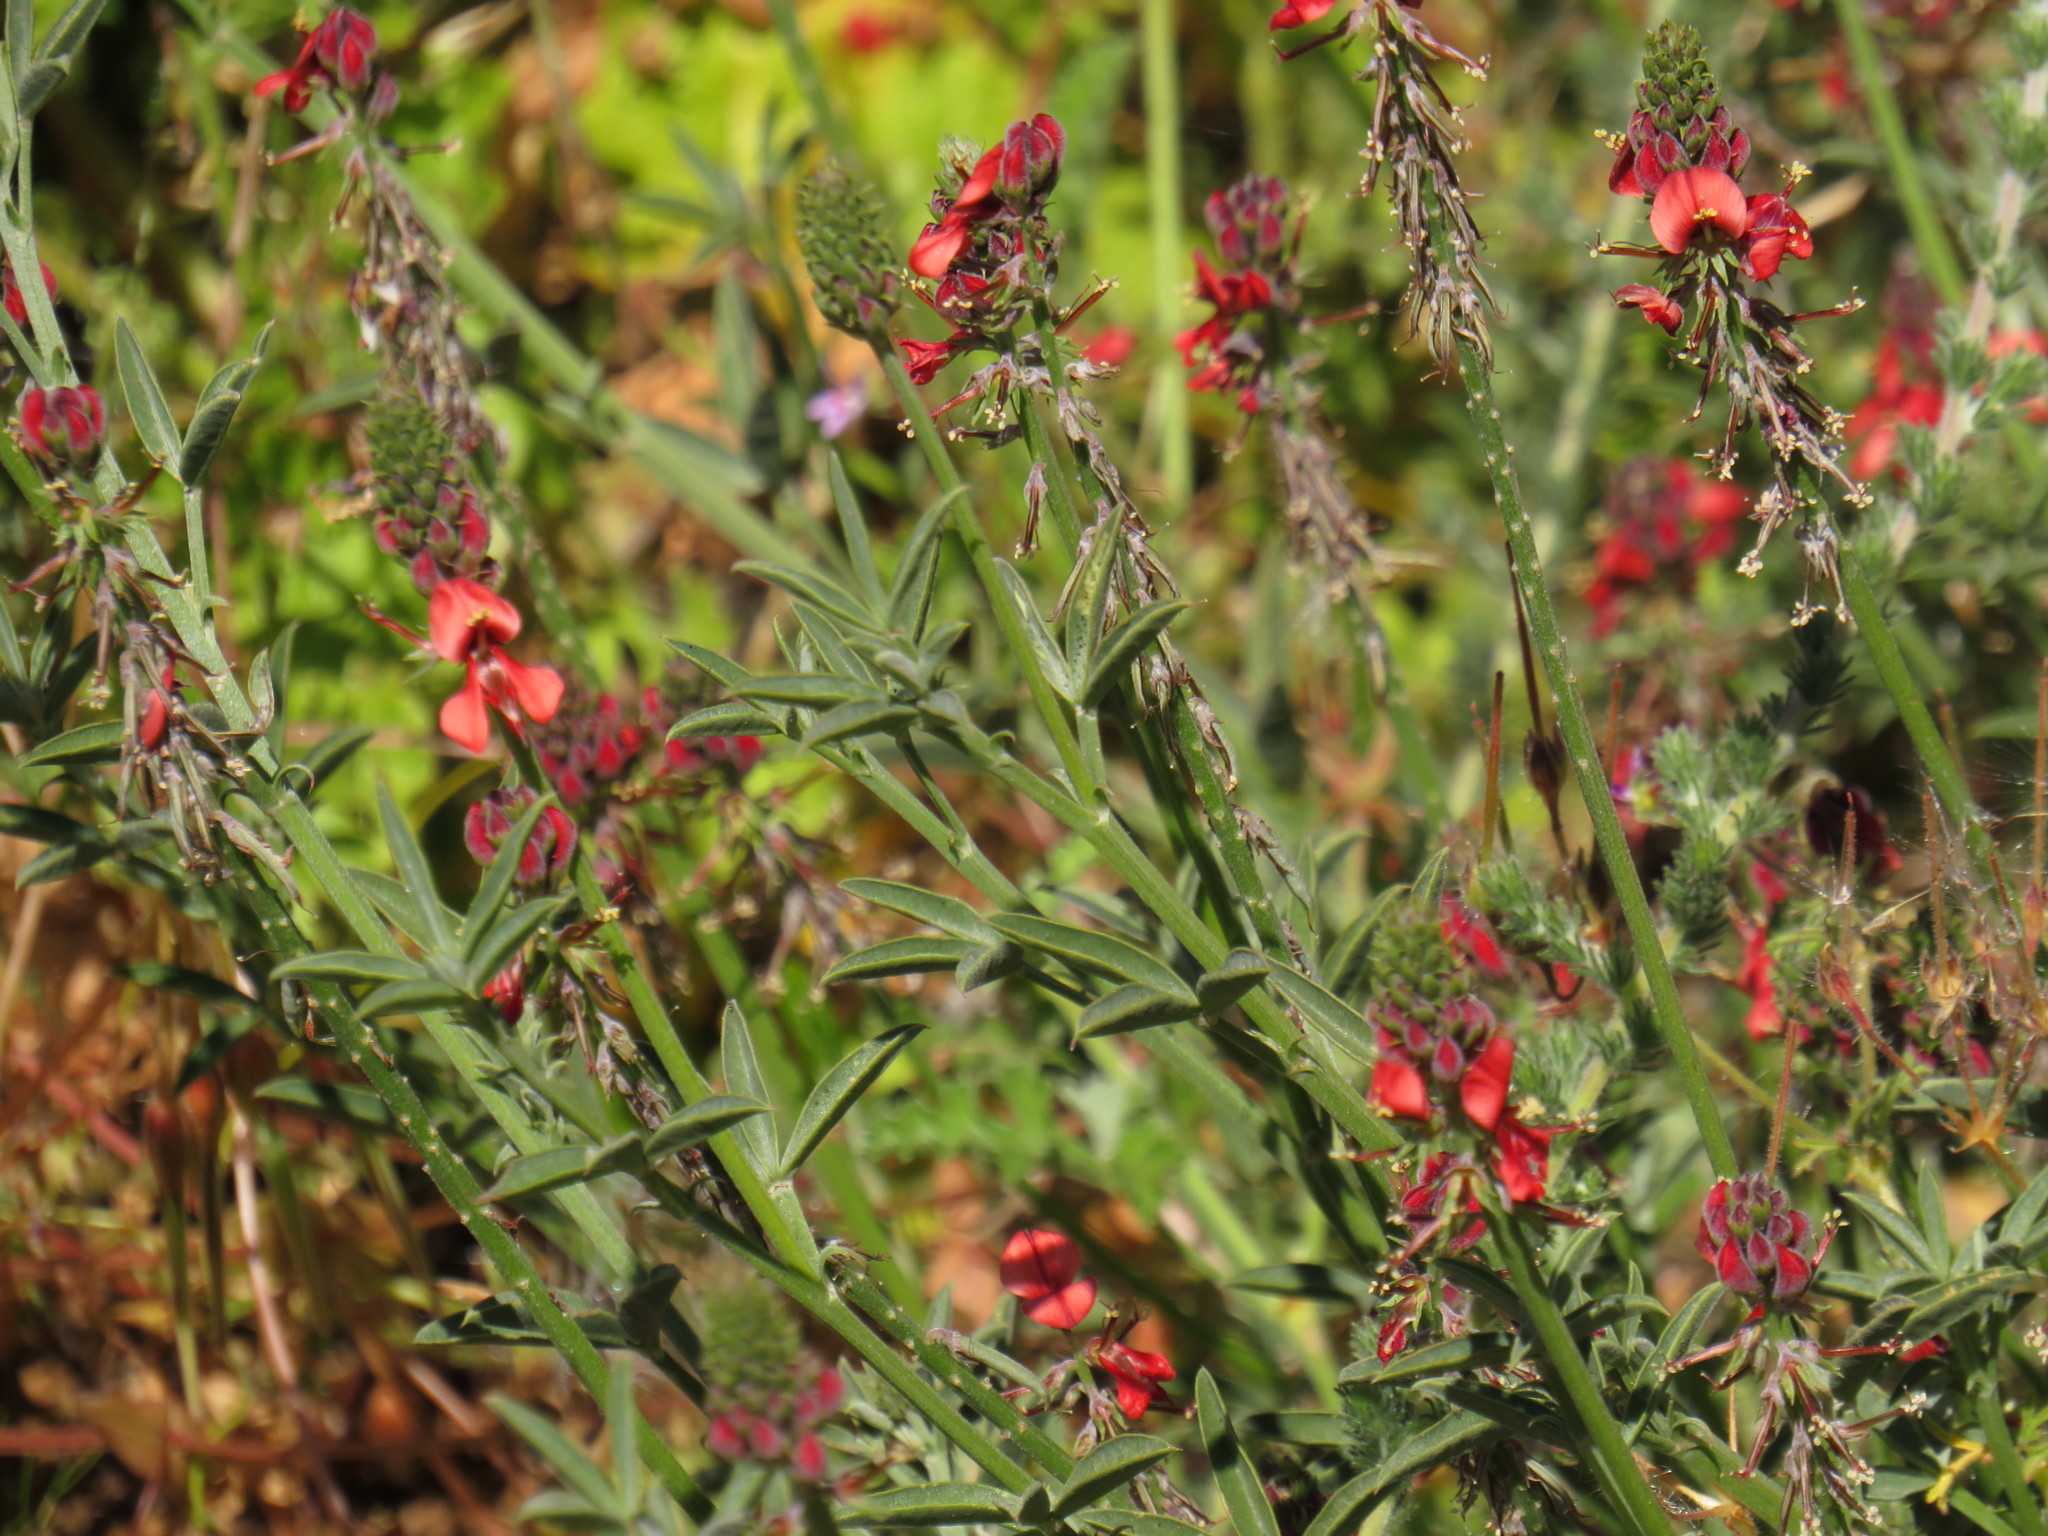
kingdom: Plantae
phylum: Tracheophyta
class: Magnoliopsida
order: Fabales
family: Fabaceae
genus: Indigofera
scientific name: Indigofera complanata
